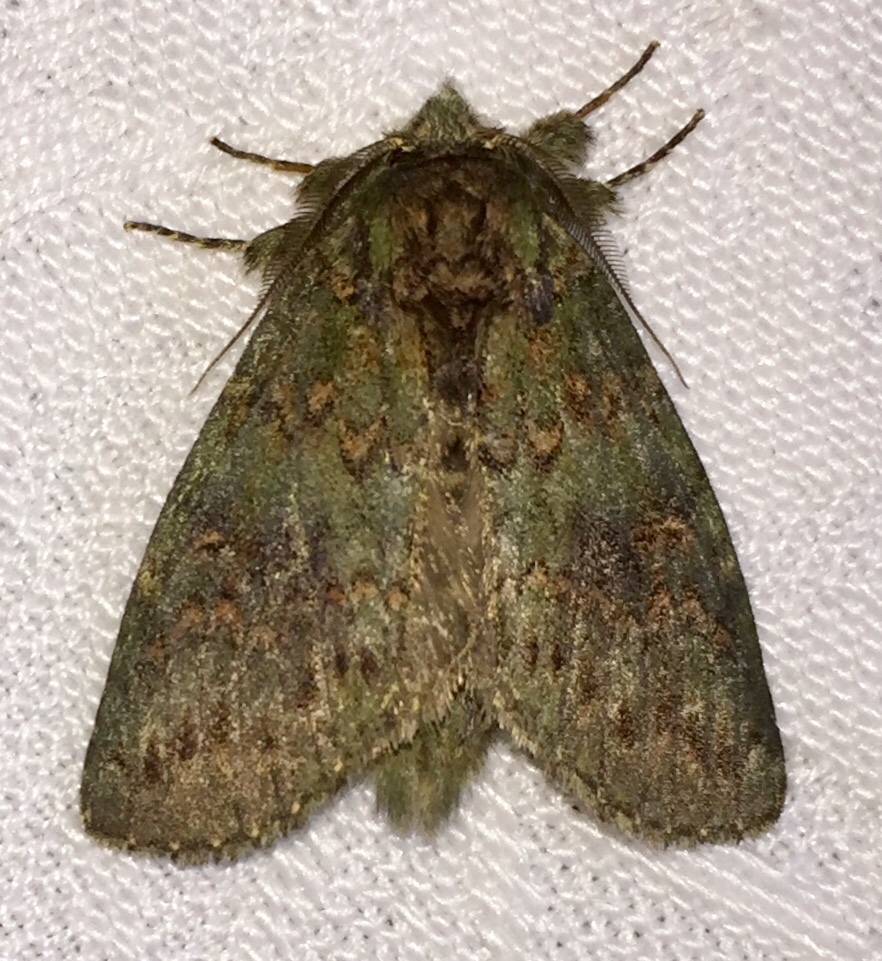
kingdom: Animalia
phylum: Arthropoda
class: Insecta
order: Lepidoptera
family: Notodontidae
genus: Disphragis
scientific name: Disphragis Cecrita biundata
